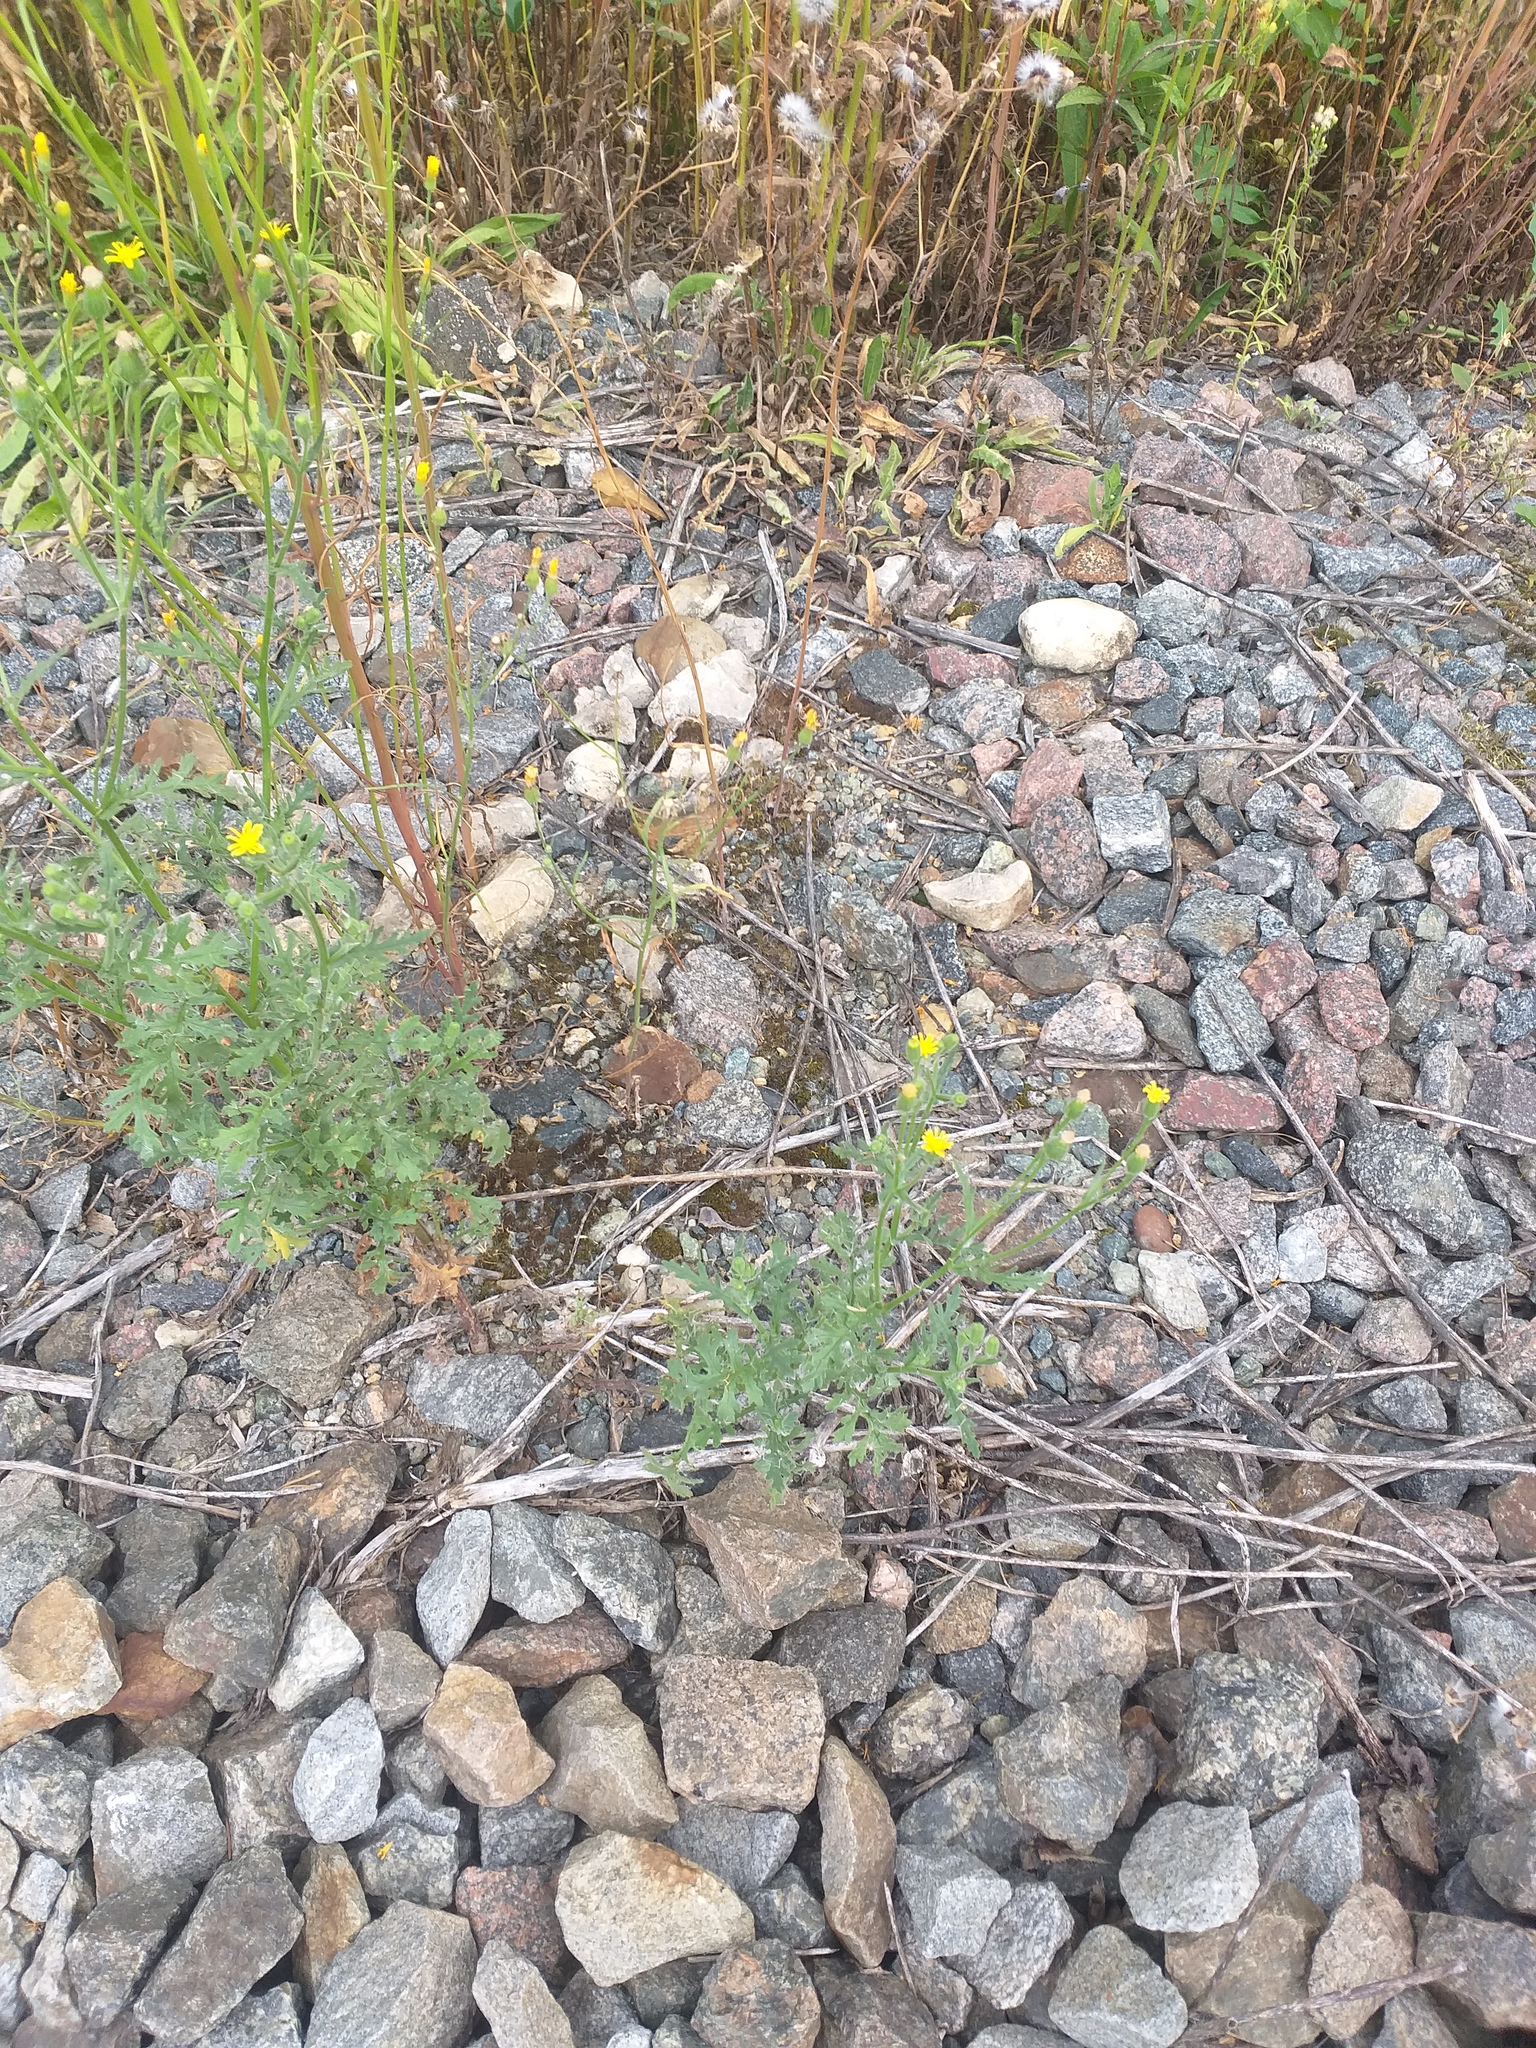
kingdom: Plantae
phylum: Tracheophyta
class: Magnoliopsida
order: Asterales
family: Asteraceae
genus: Senecio
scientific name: Senecio viscosus
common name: Sticky groundsel
